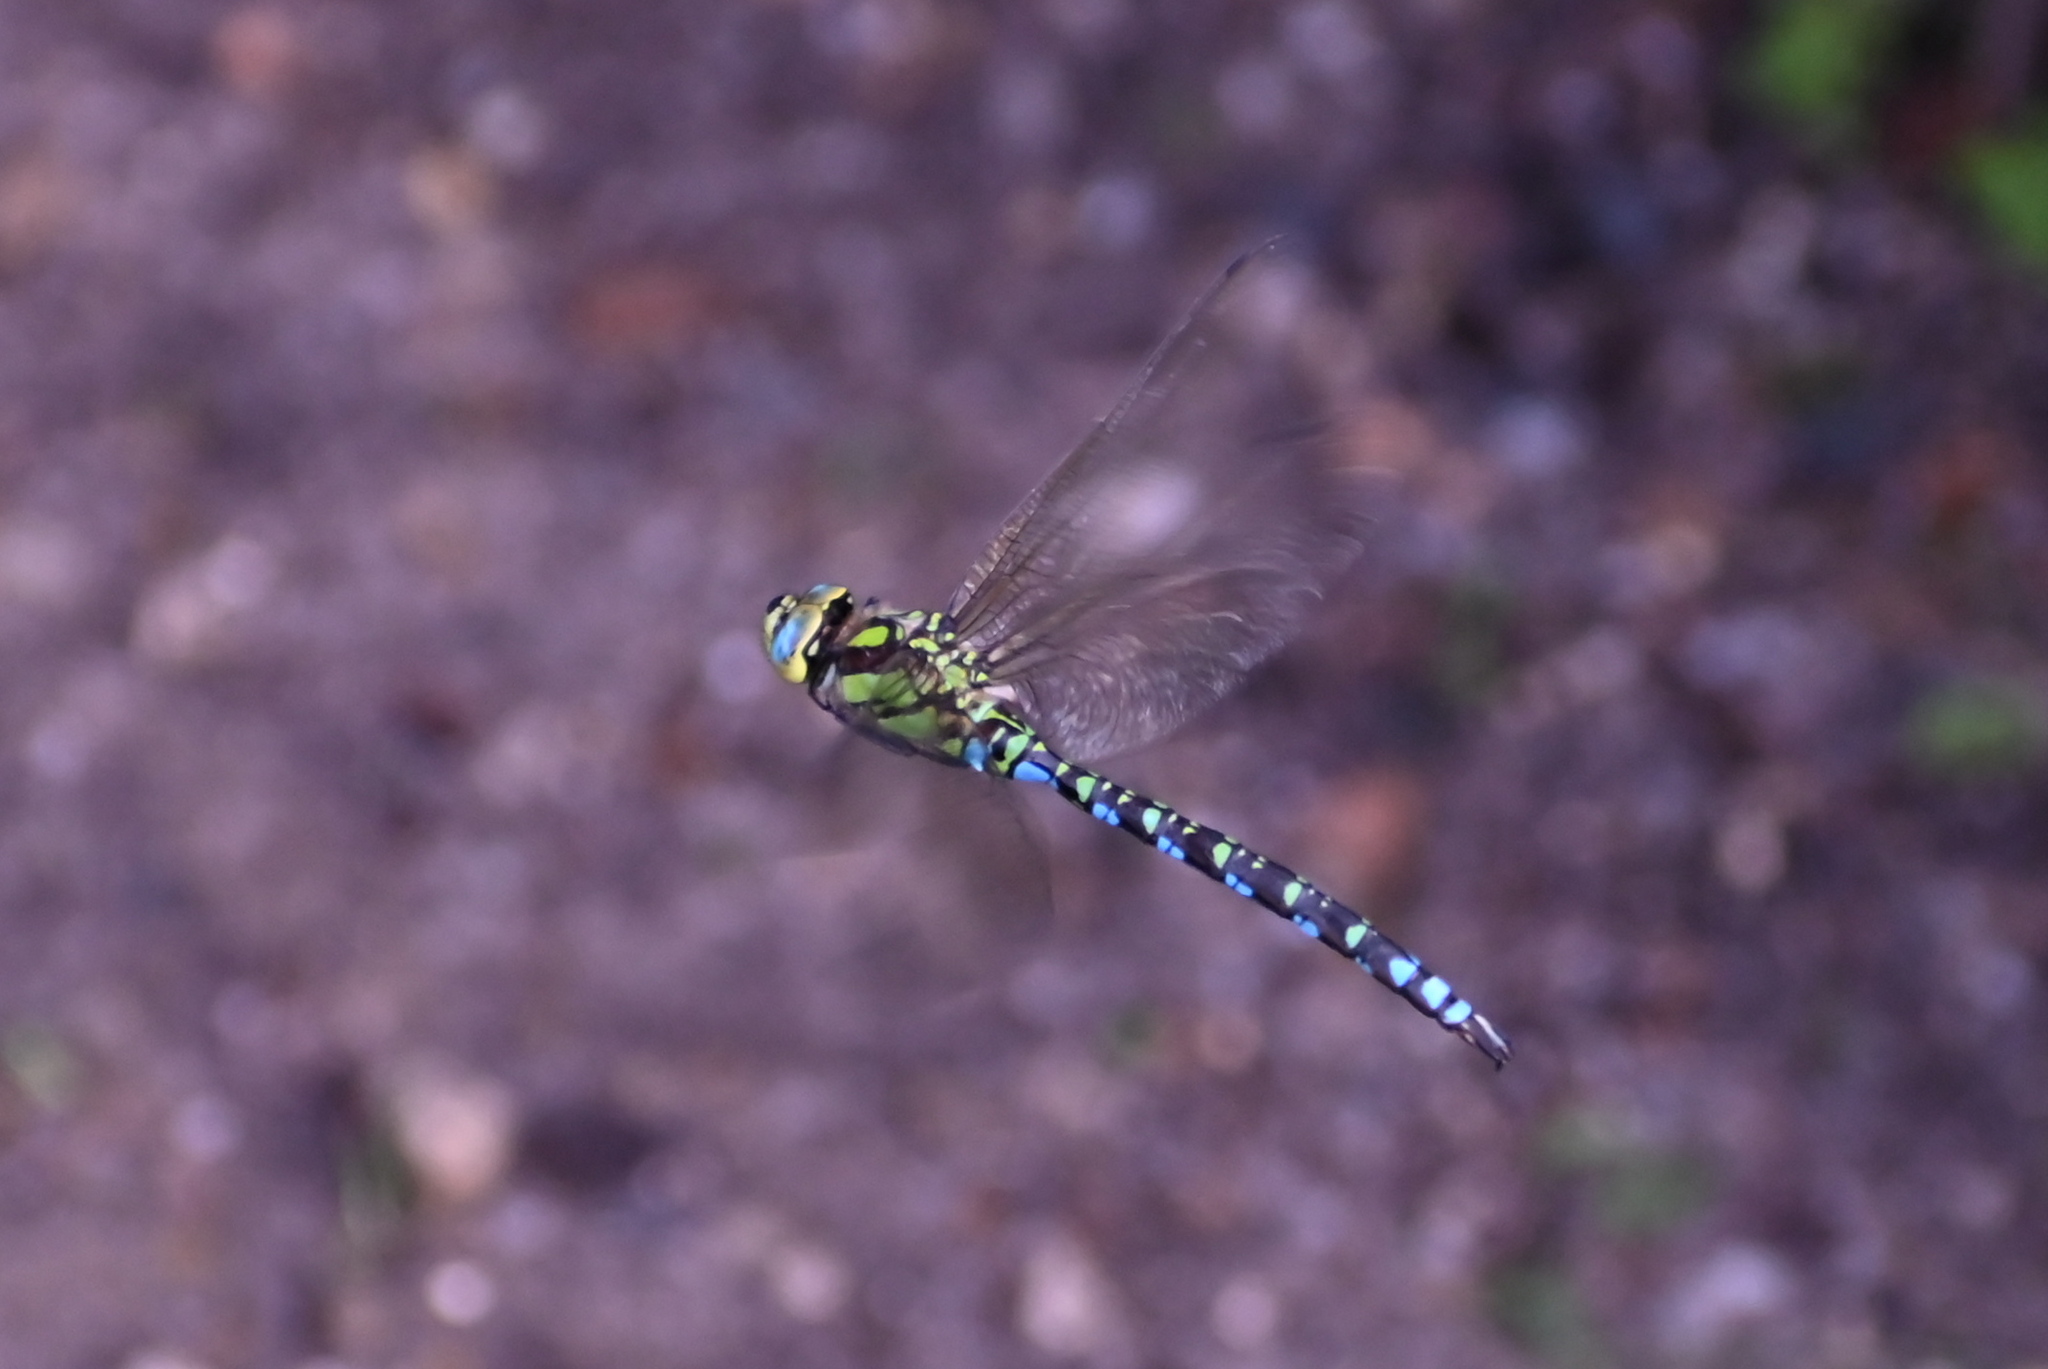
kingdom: Animalia
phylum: Arthropoda
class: Insecta
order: Odonata
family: Aeshnidae
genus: Aeshna
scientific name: Aeshna cyanea
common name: Southern hawker
